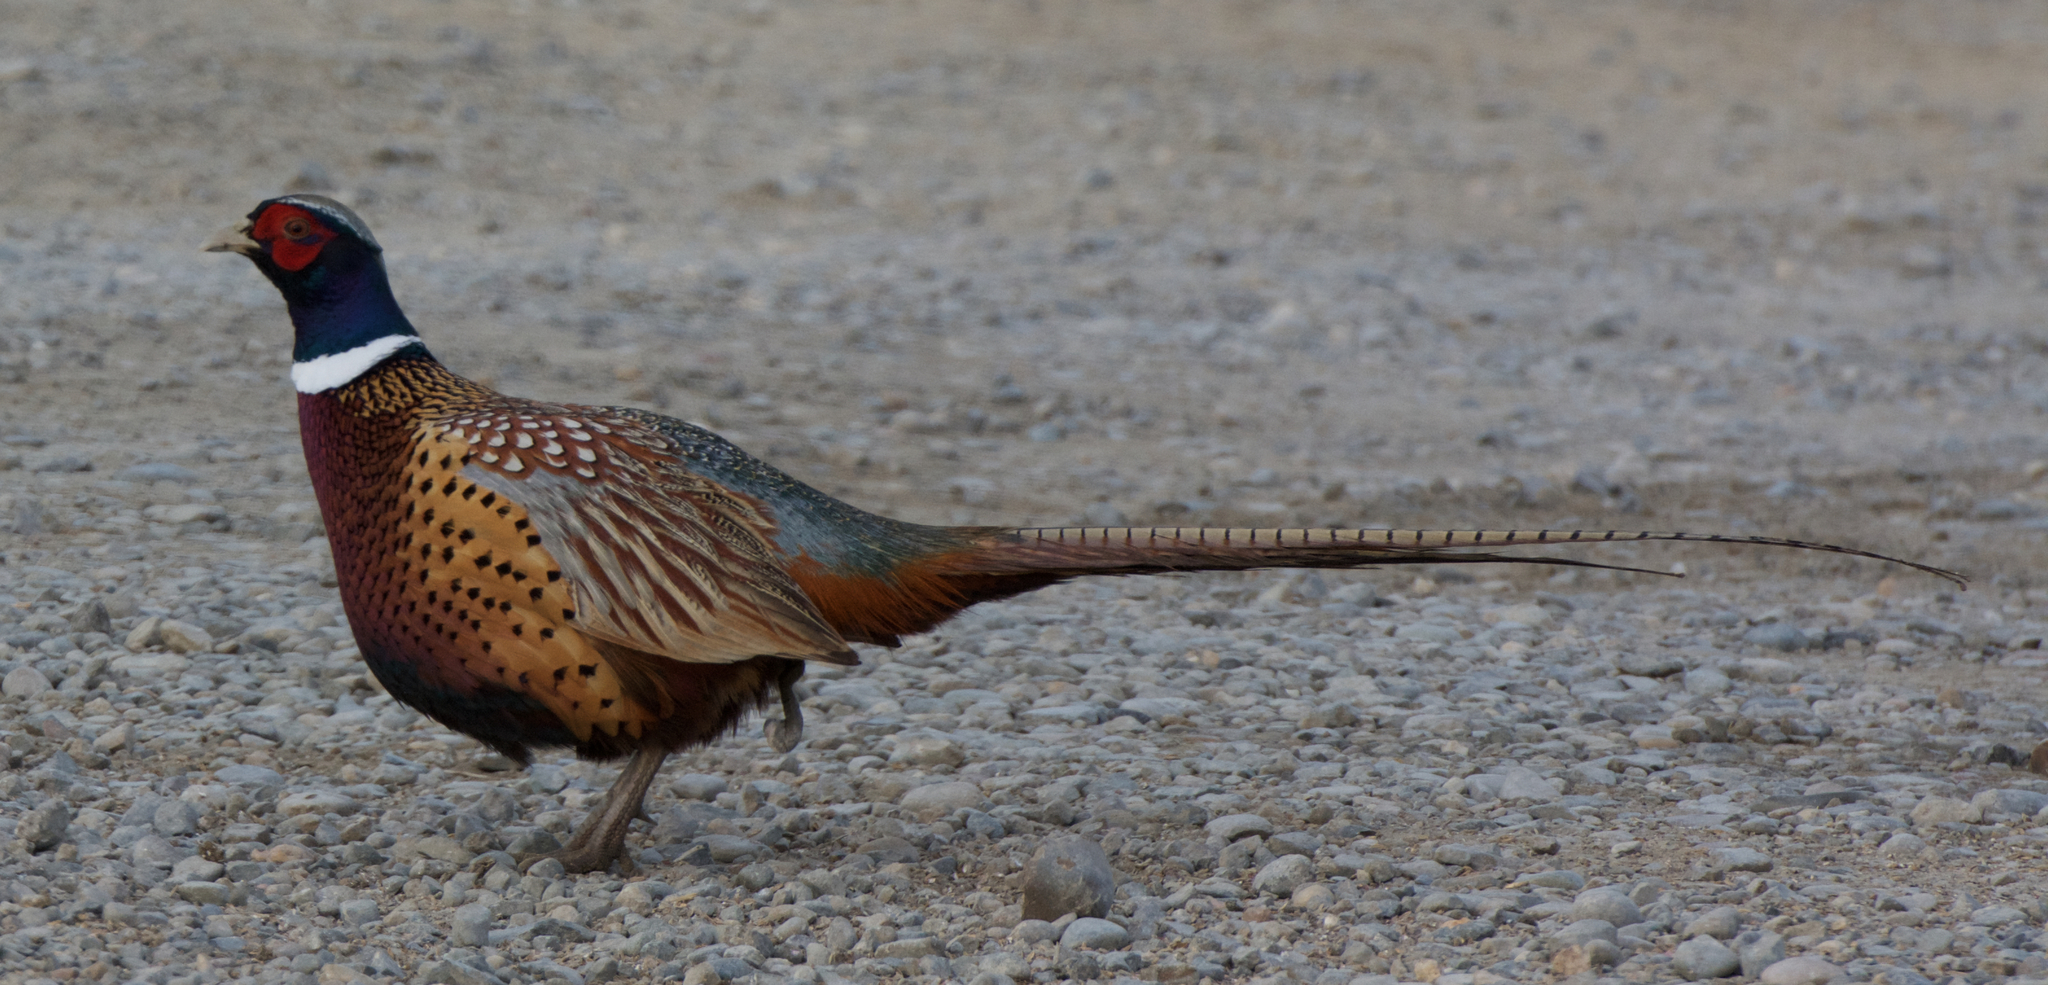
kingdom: Animalia
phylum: Chordata
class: Aves
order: Galliformes
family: Phasianidae
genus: Phasianus
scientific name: Phasianus colchicus
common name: Common pheasant
